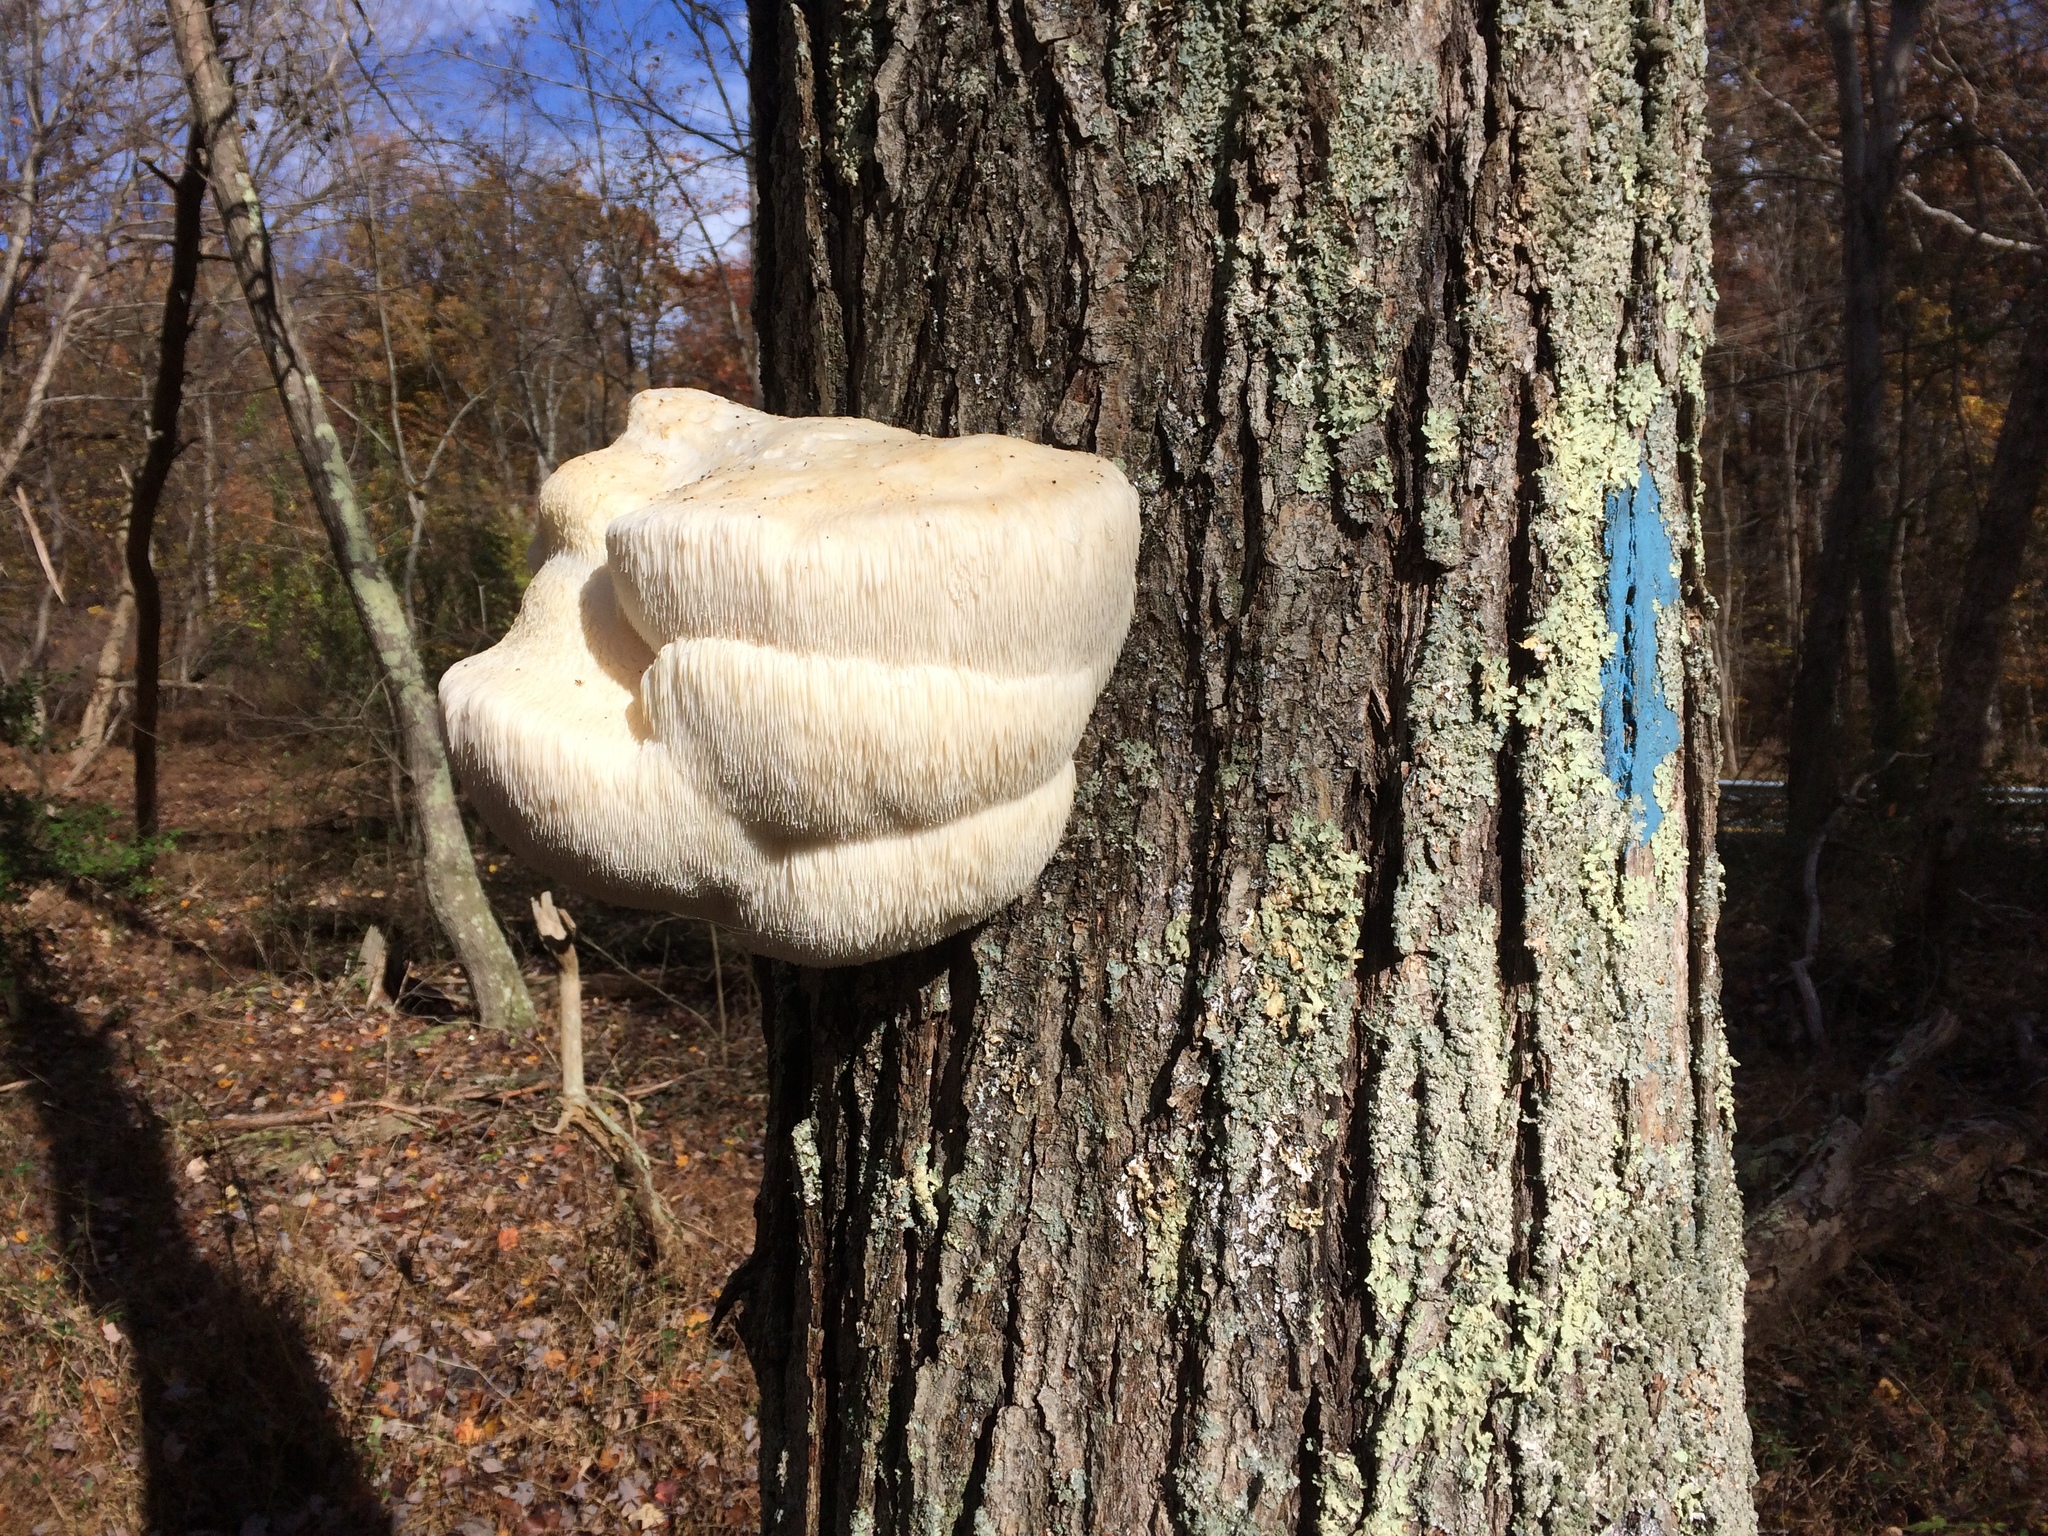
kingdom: Fungi
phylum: Basidiomycota
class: Agaricomycetes
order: Russulales
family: Hericiaceae
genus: Hericium
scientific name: Hericium erinaceus
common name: Bearded tooth
